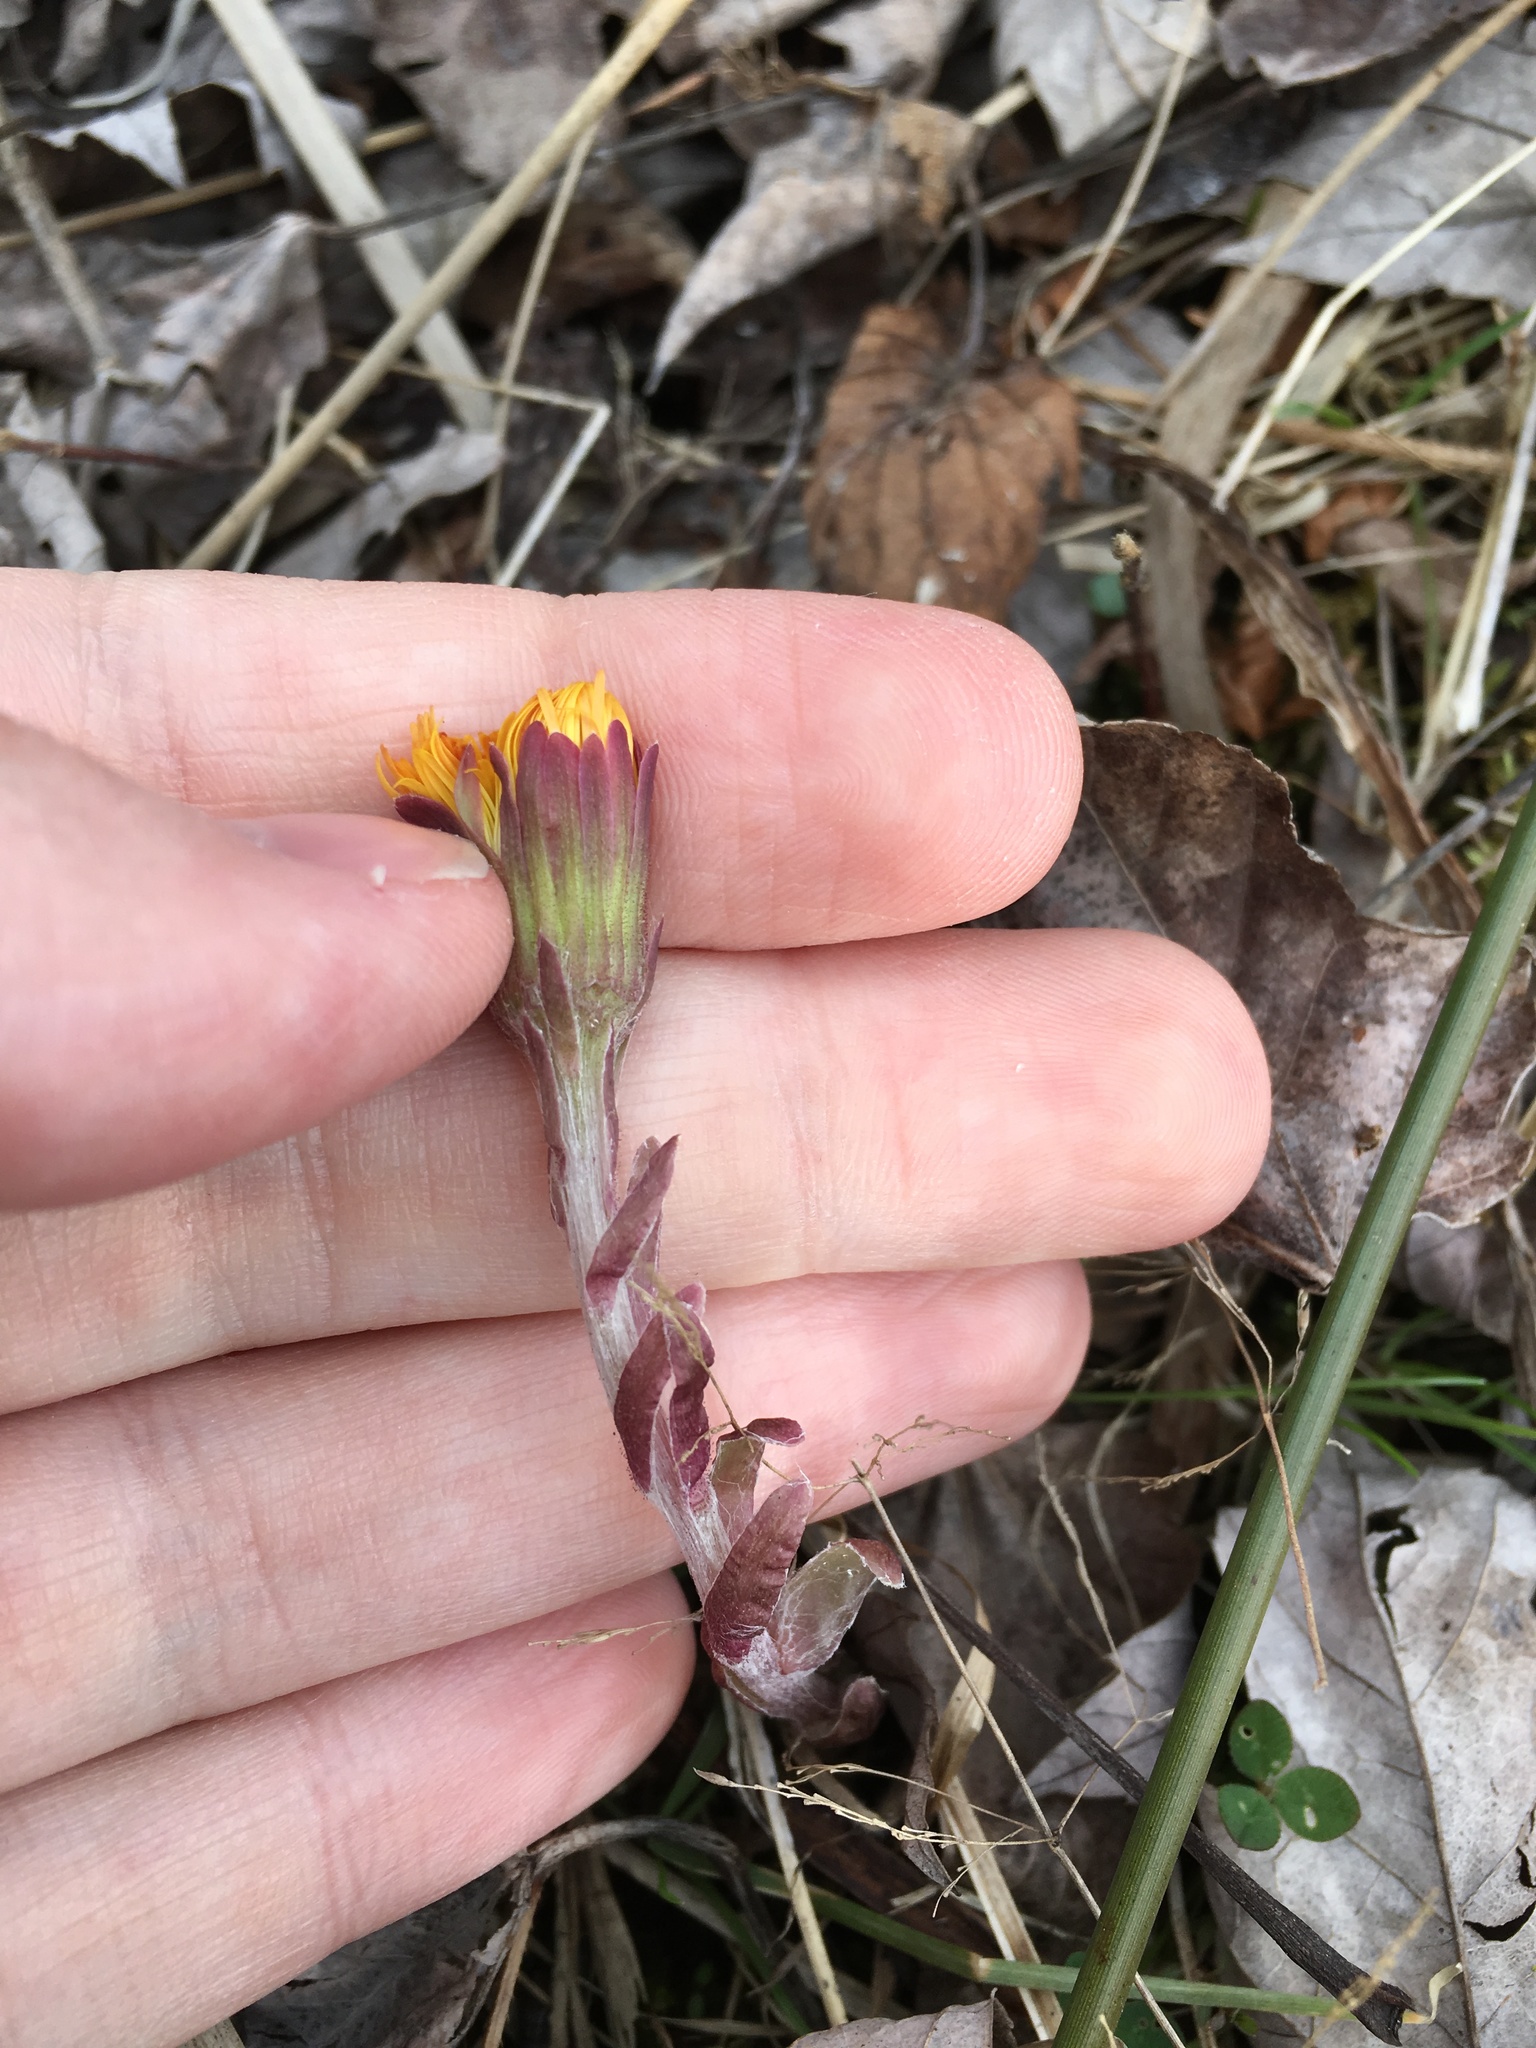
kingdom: Plantae
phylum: Tracheophyta
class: Magnoliopsida
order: Asterales
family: Asteraceae
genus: Tussilago
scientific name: Tussilago farfara
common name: Coltsfoot
